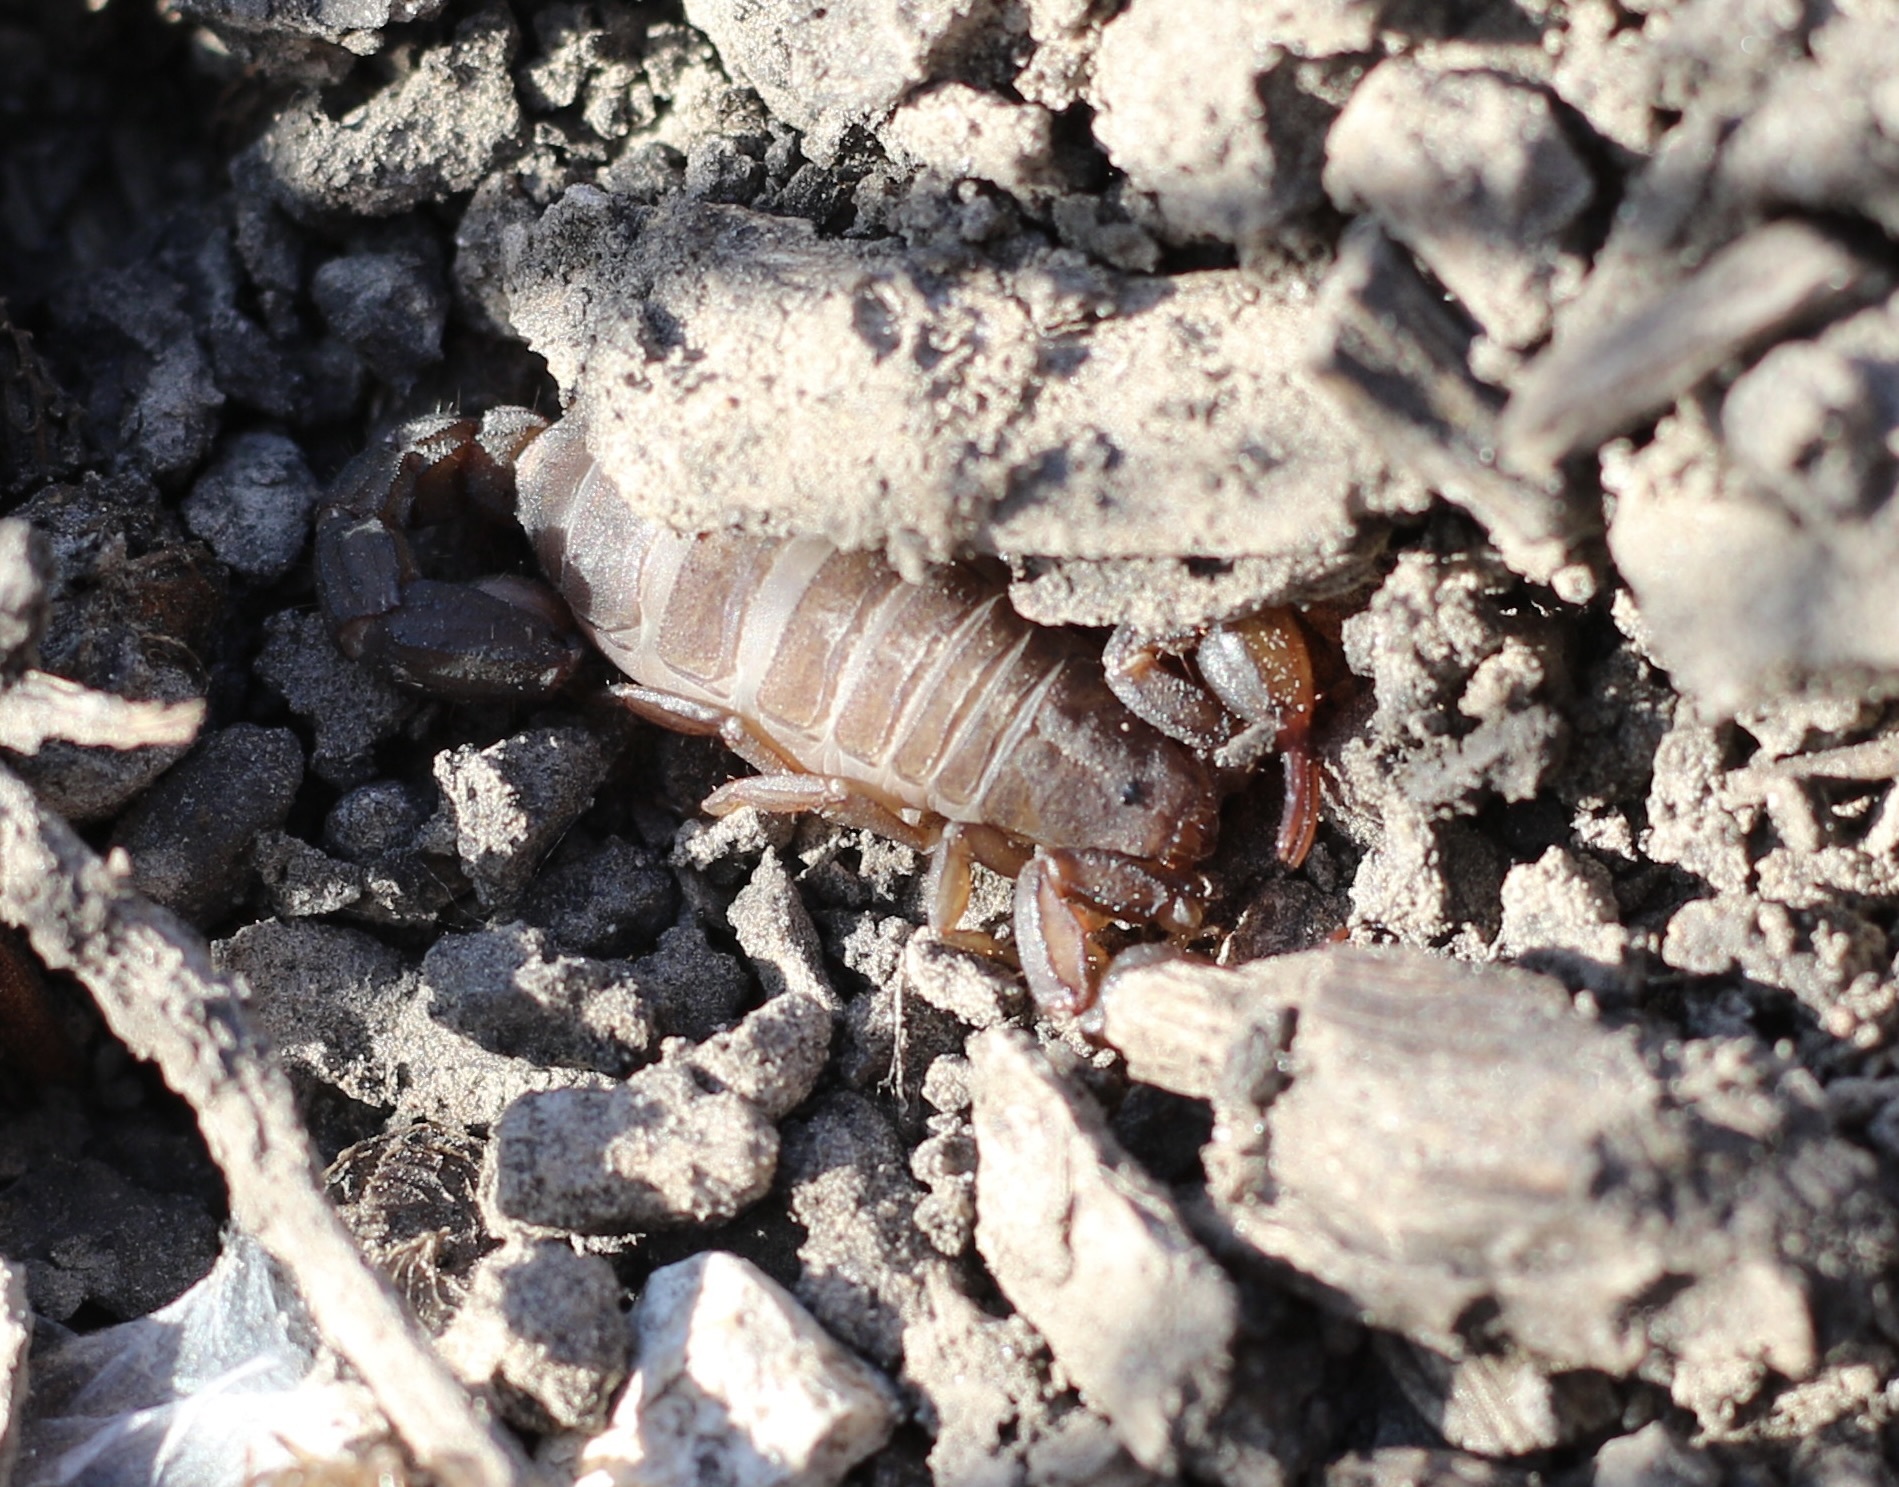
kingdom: Animalia
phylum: Arthropoda
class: Arachnida
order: Scorpiones
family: Vaejovidae
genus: Catalinia
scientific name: Catalinia thompsoni
